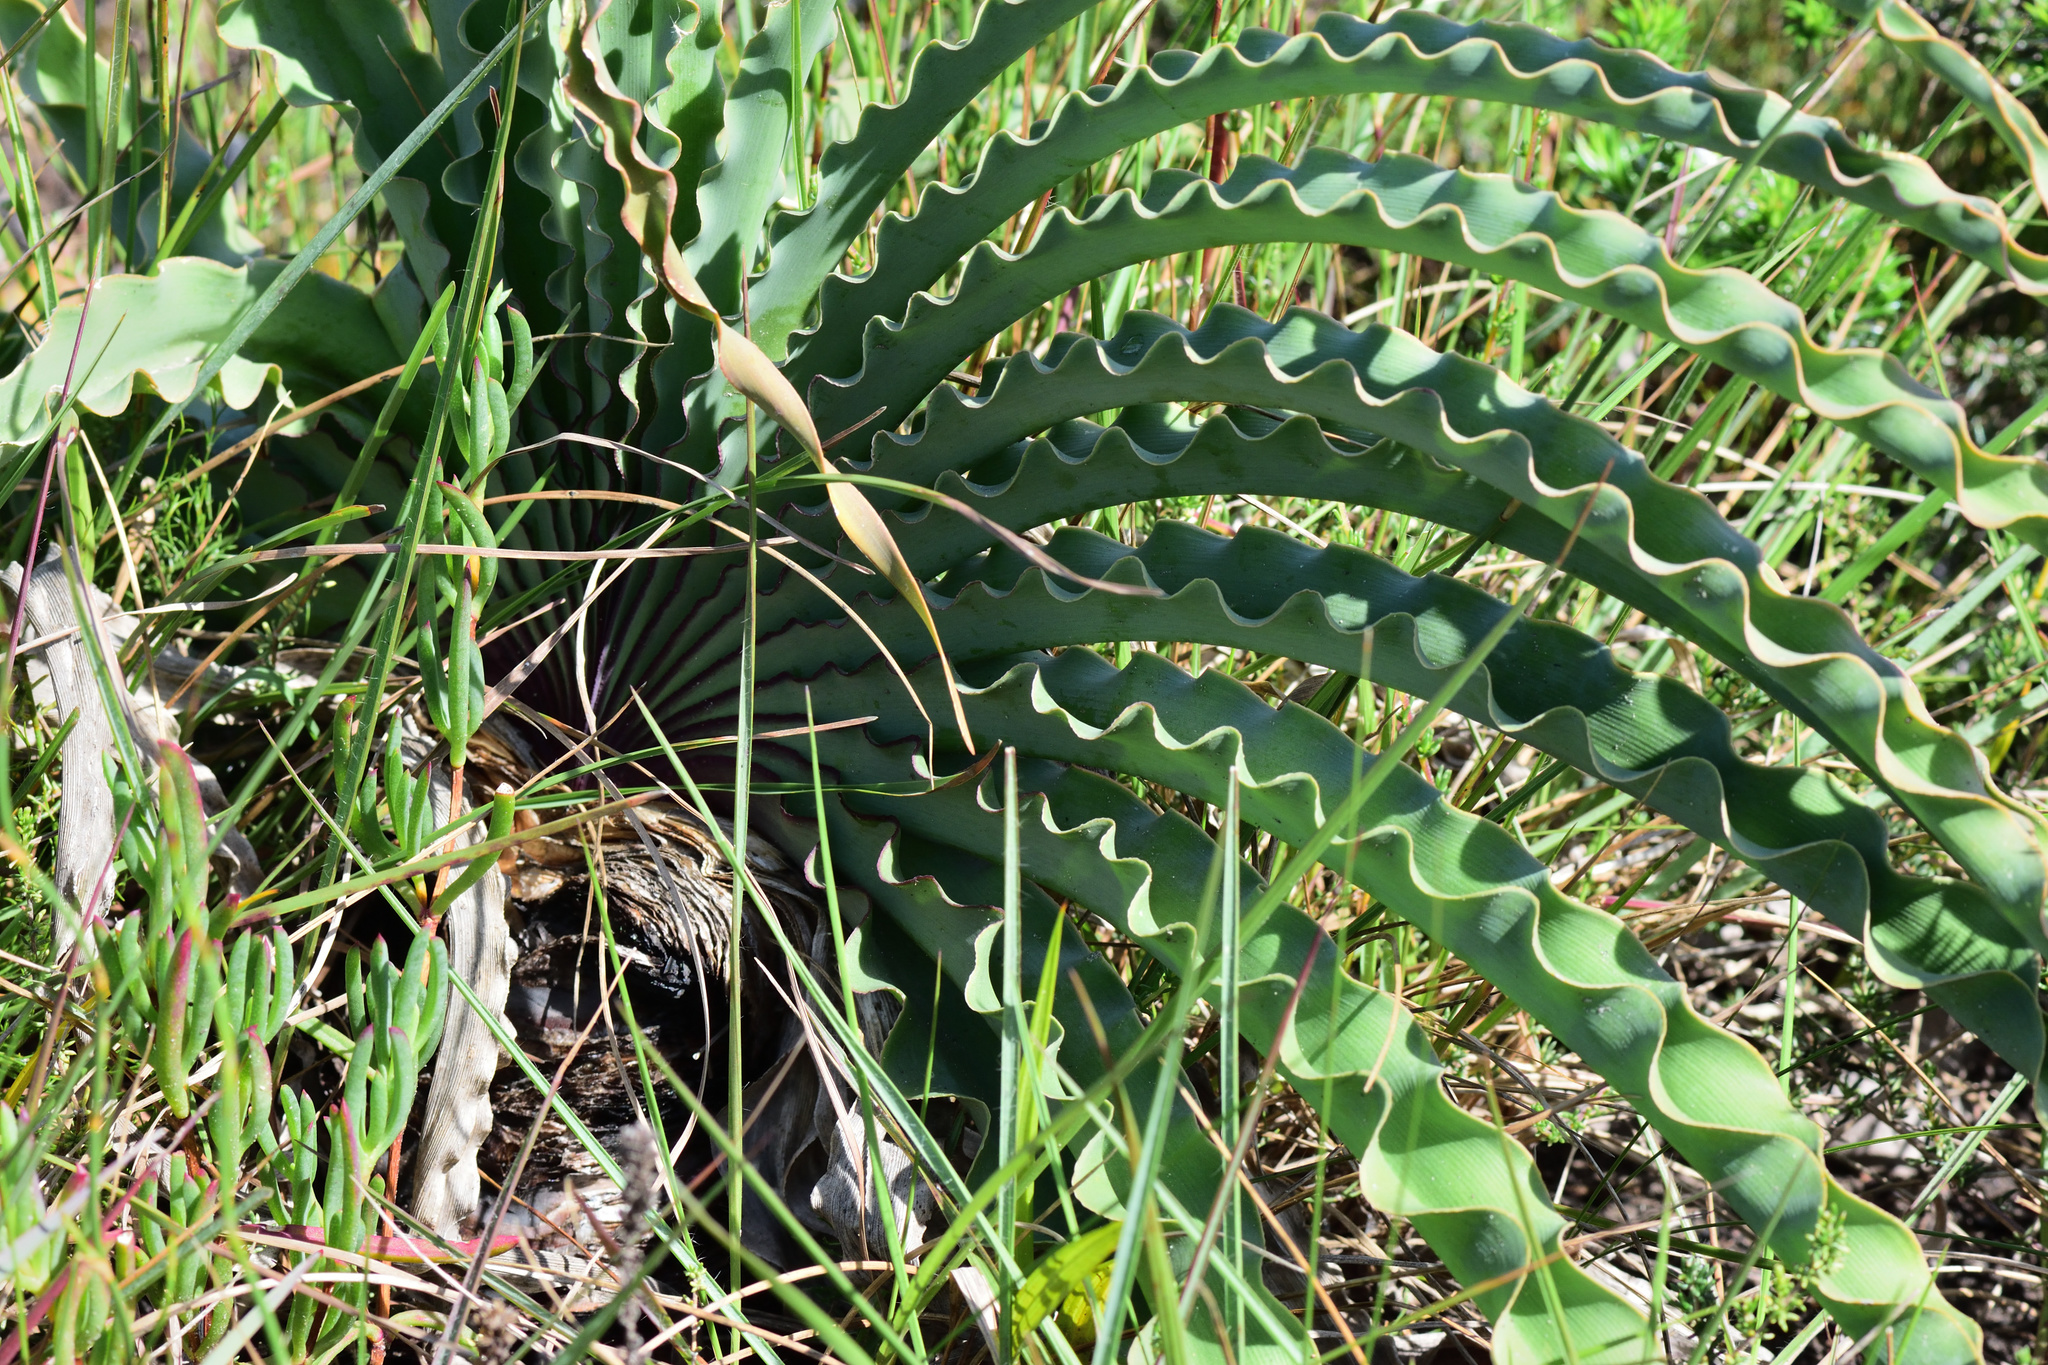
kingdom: Plantae
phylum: Tracheophyta
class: Liliopsida
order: Asparagales
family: Amaryllidaceae
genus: Boophone
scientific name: Boophone disticha
